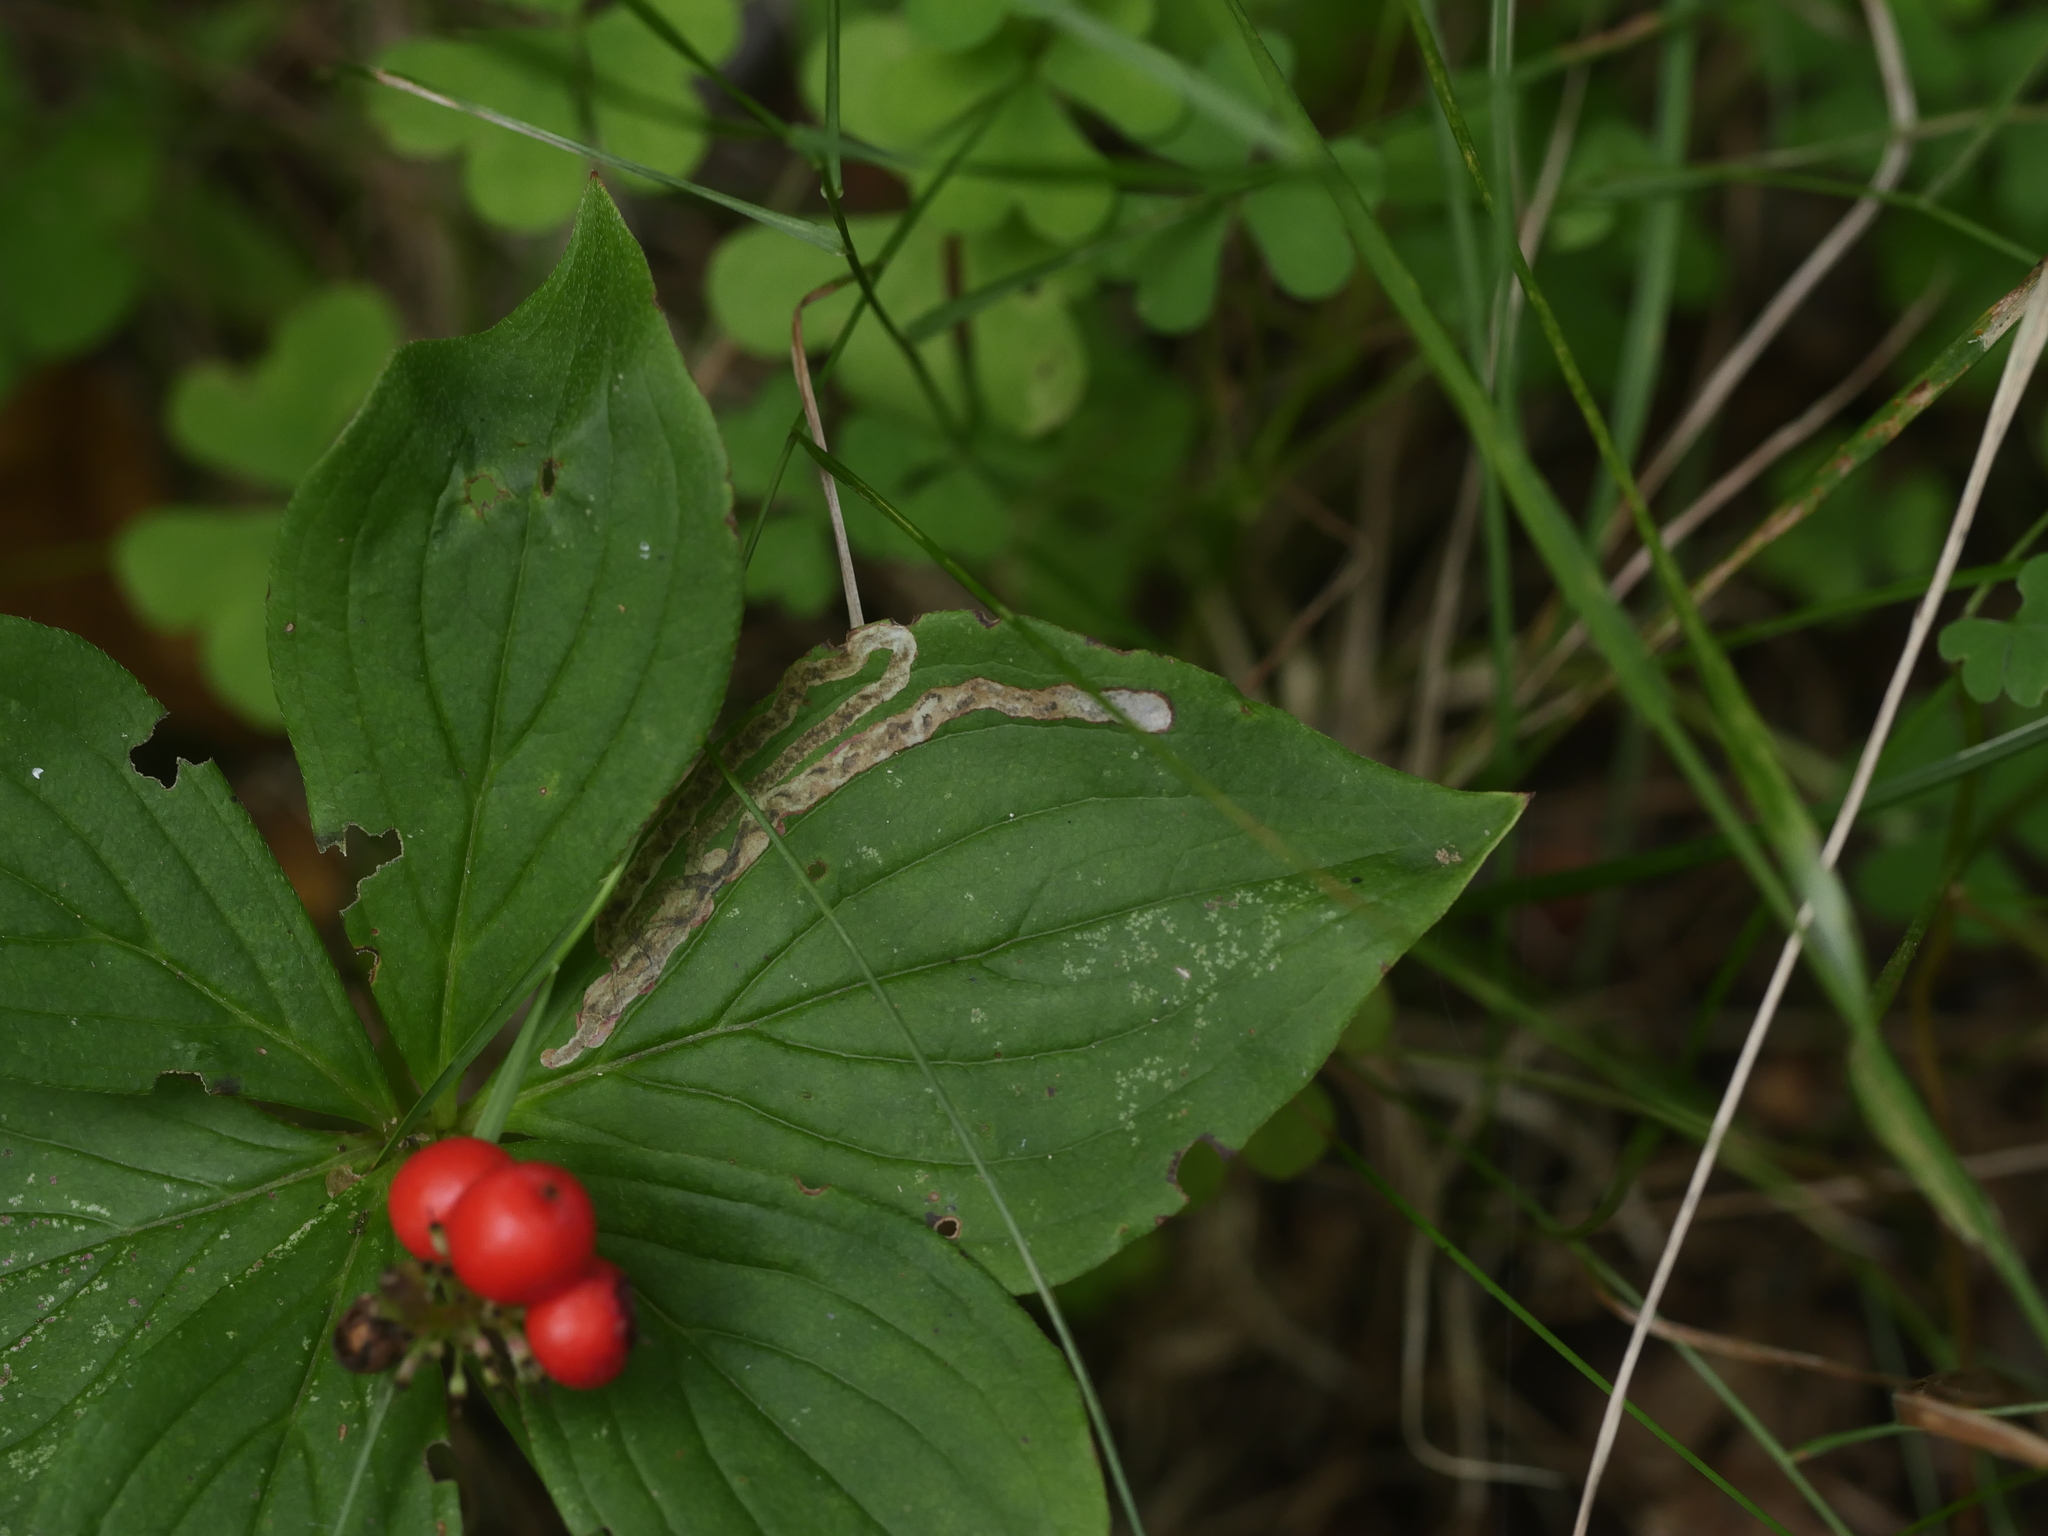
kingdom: Animalia
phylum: Arthropoda
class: Insecta
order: Diptera
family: Agromyzidae
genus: Phytomyza
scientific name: Phytomyza agromyzina
